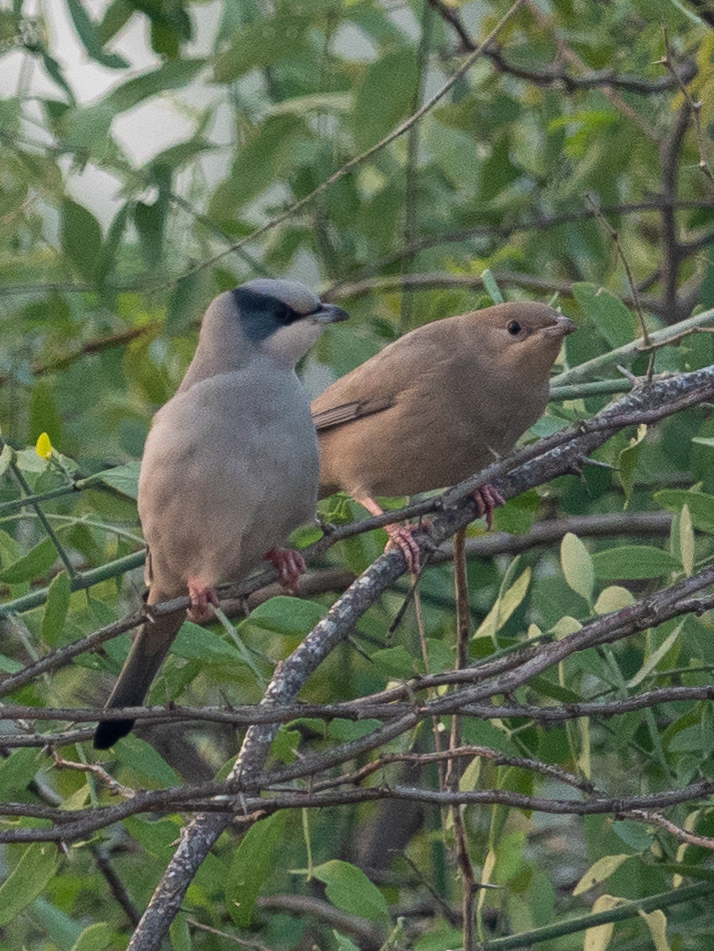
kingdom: Animalia
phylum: Chordata
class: Aves
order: Passeriformes
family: Hypocoliidae
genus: Hypocolius
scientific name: Hypocolius ampelinus
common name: Hypocolius
